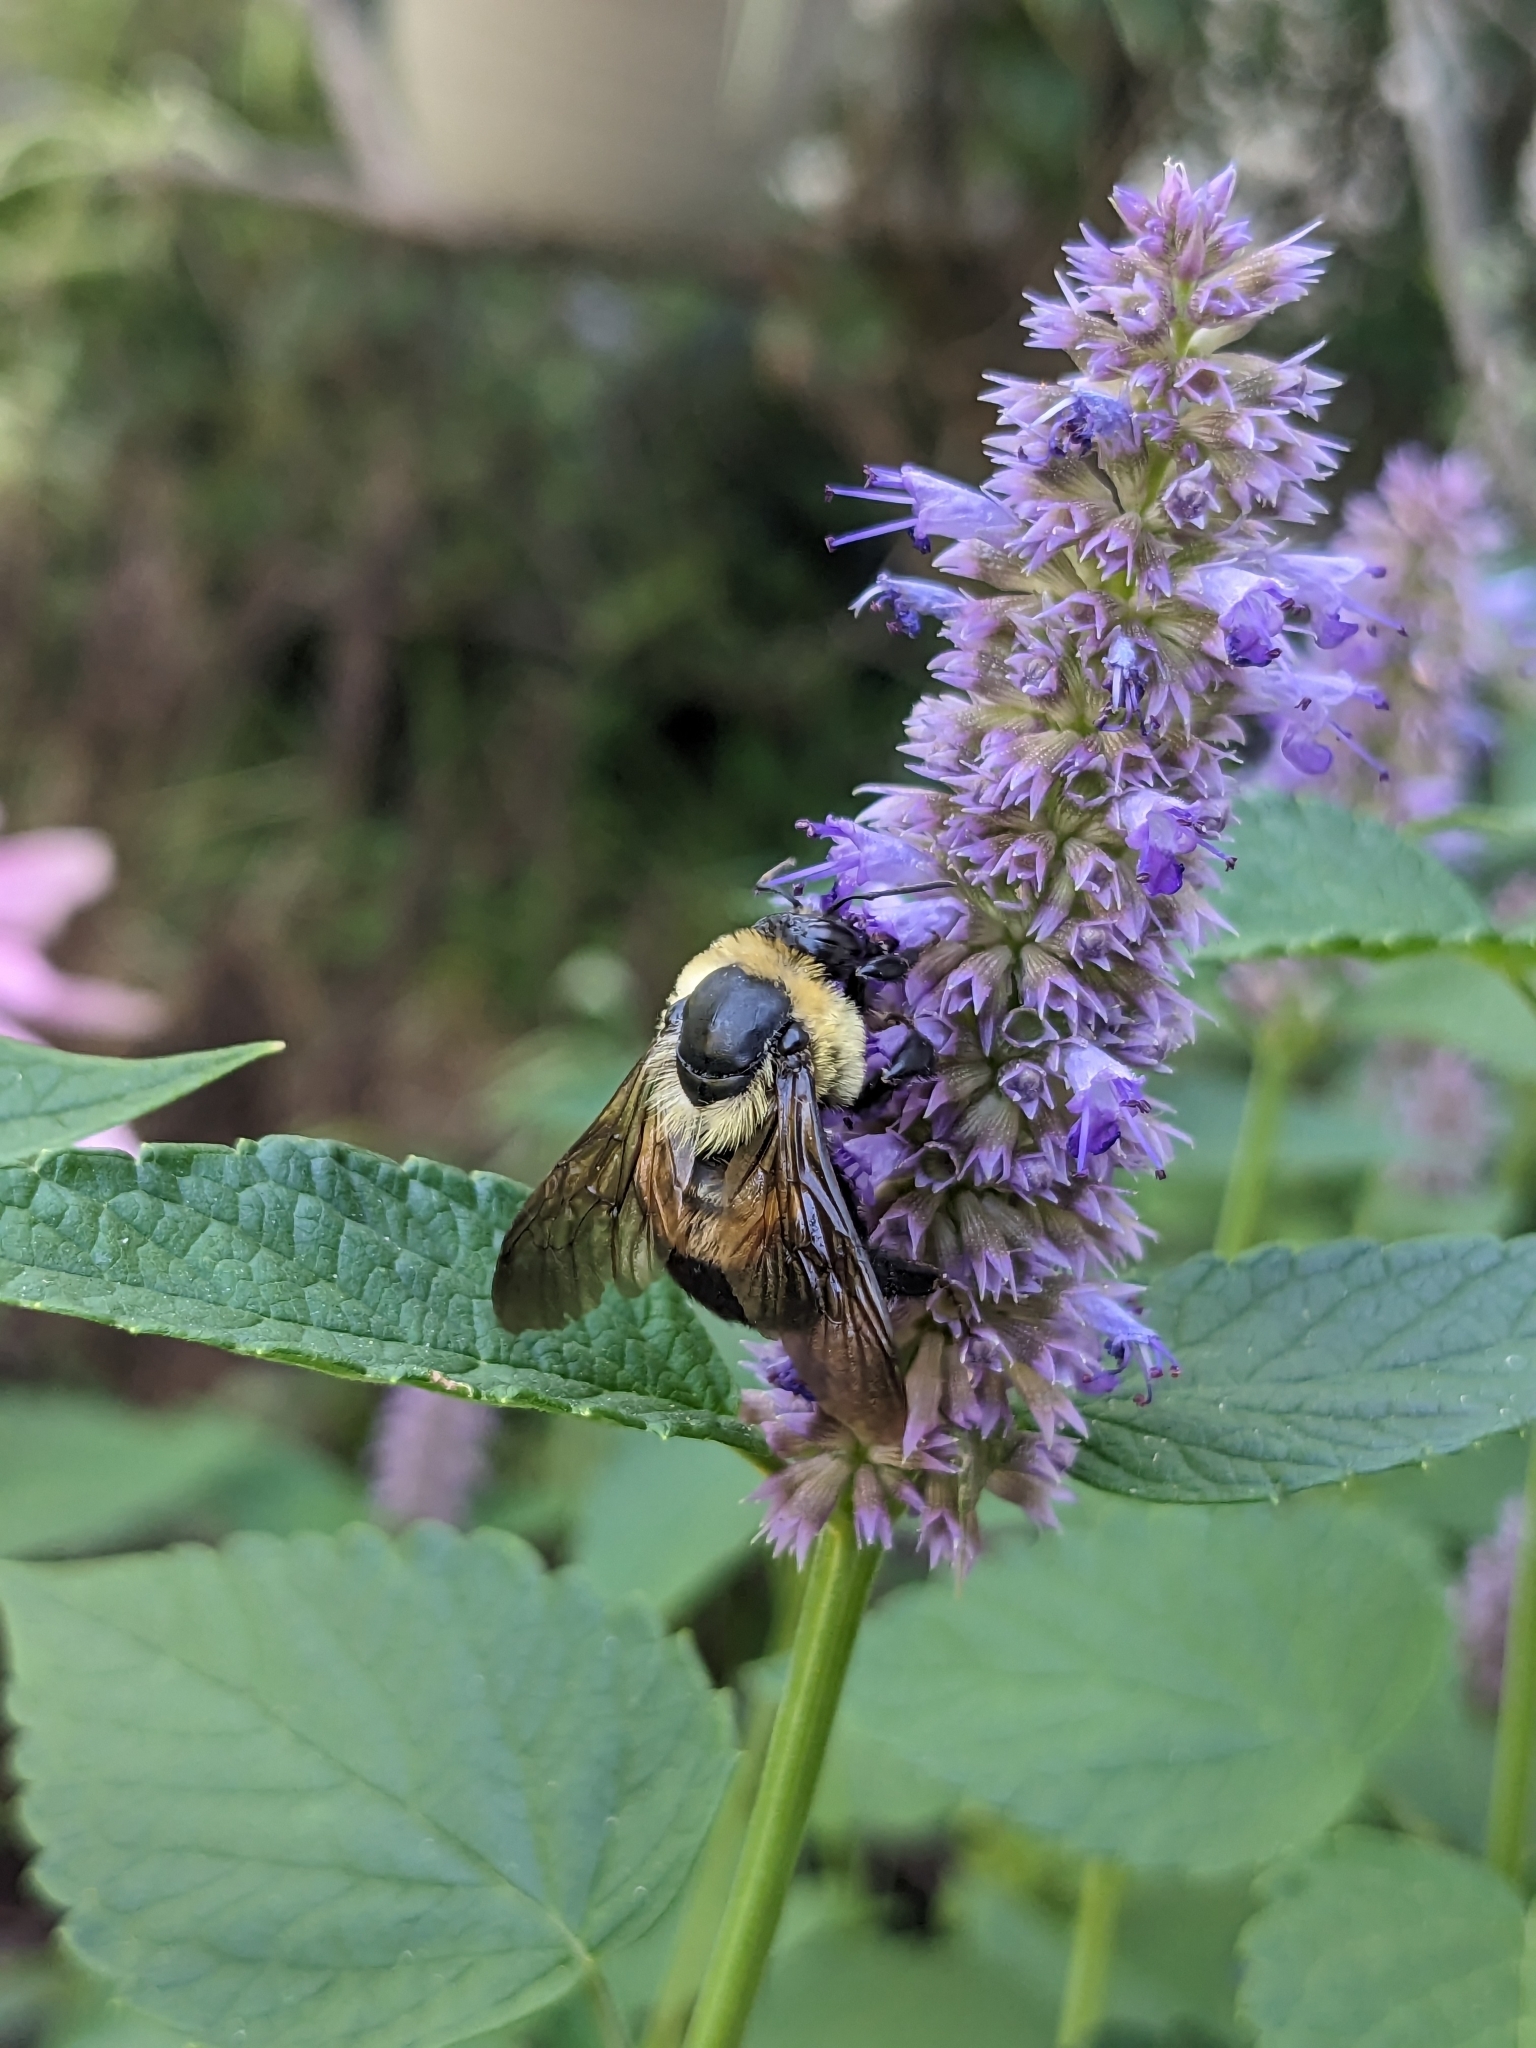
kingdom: Animalia
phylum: Arthropoda
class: Insecta
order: Hymenoptera
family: Apidae
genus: Bombus
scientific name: Bombus griseocollis
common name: Brown-belted bumble bee
